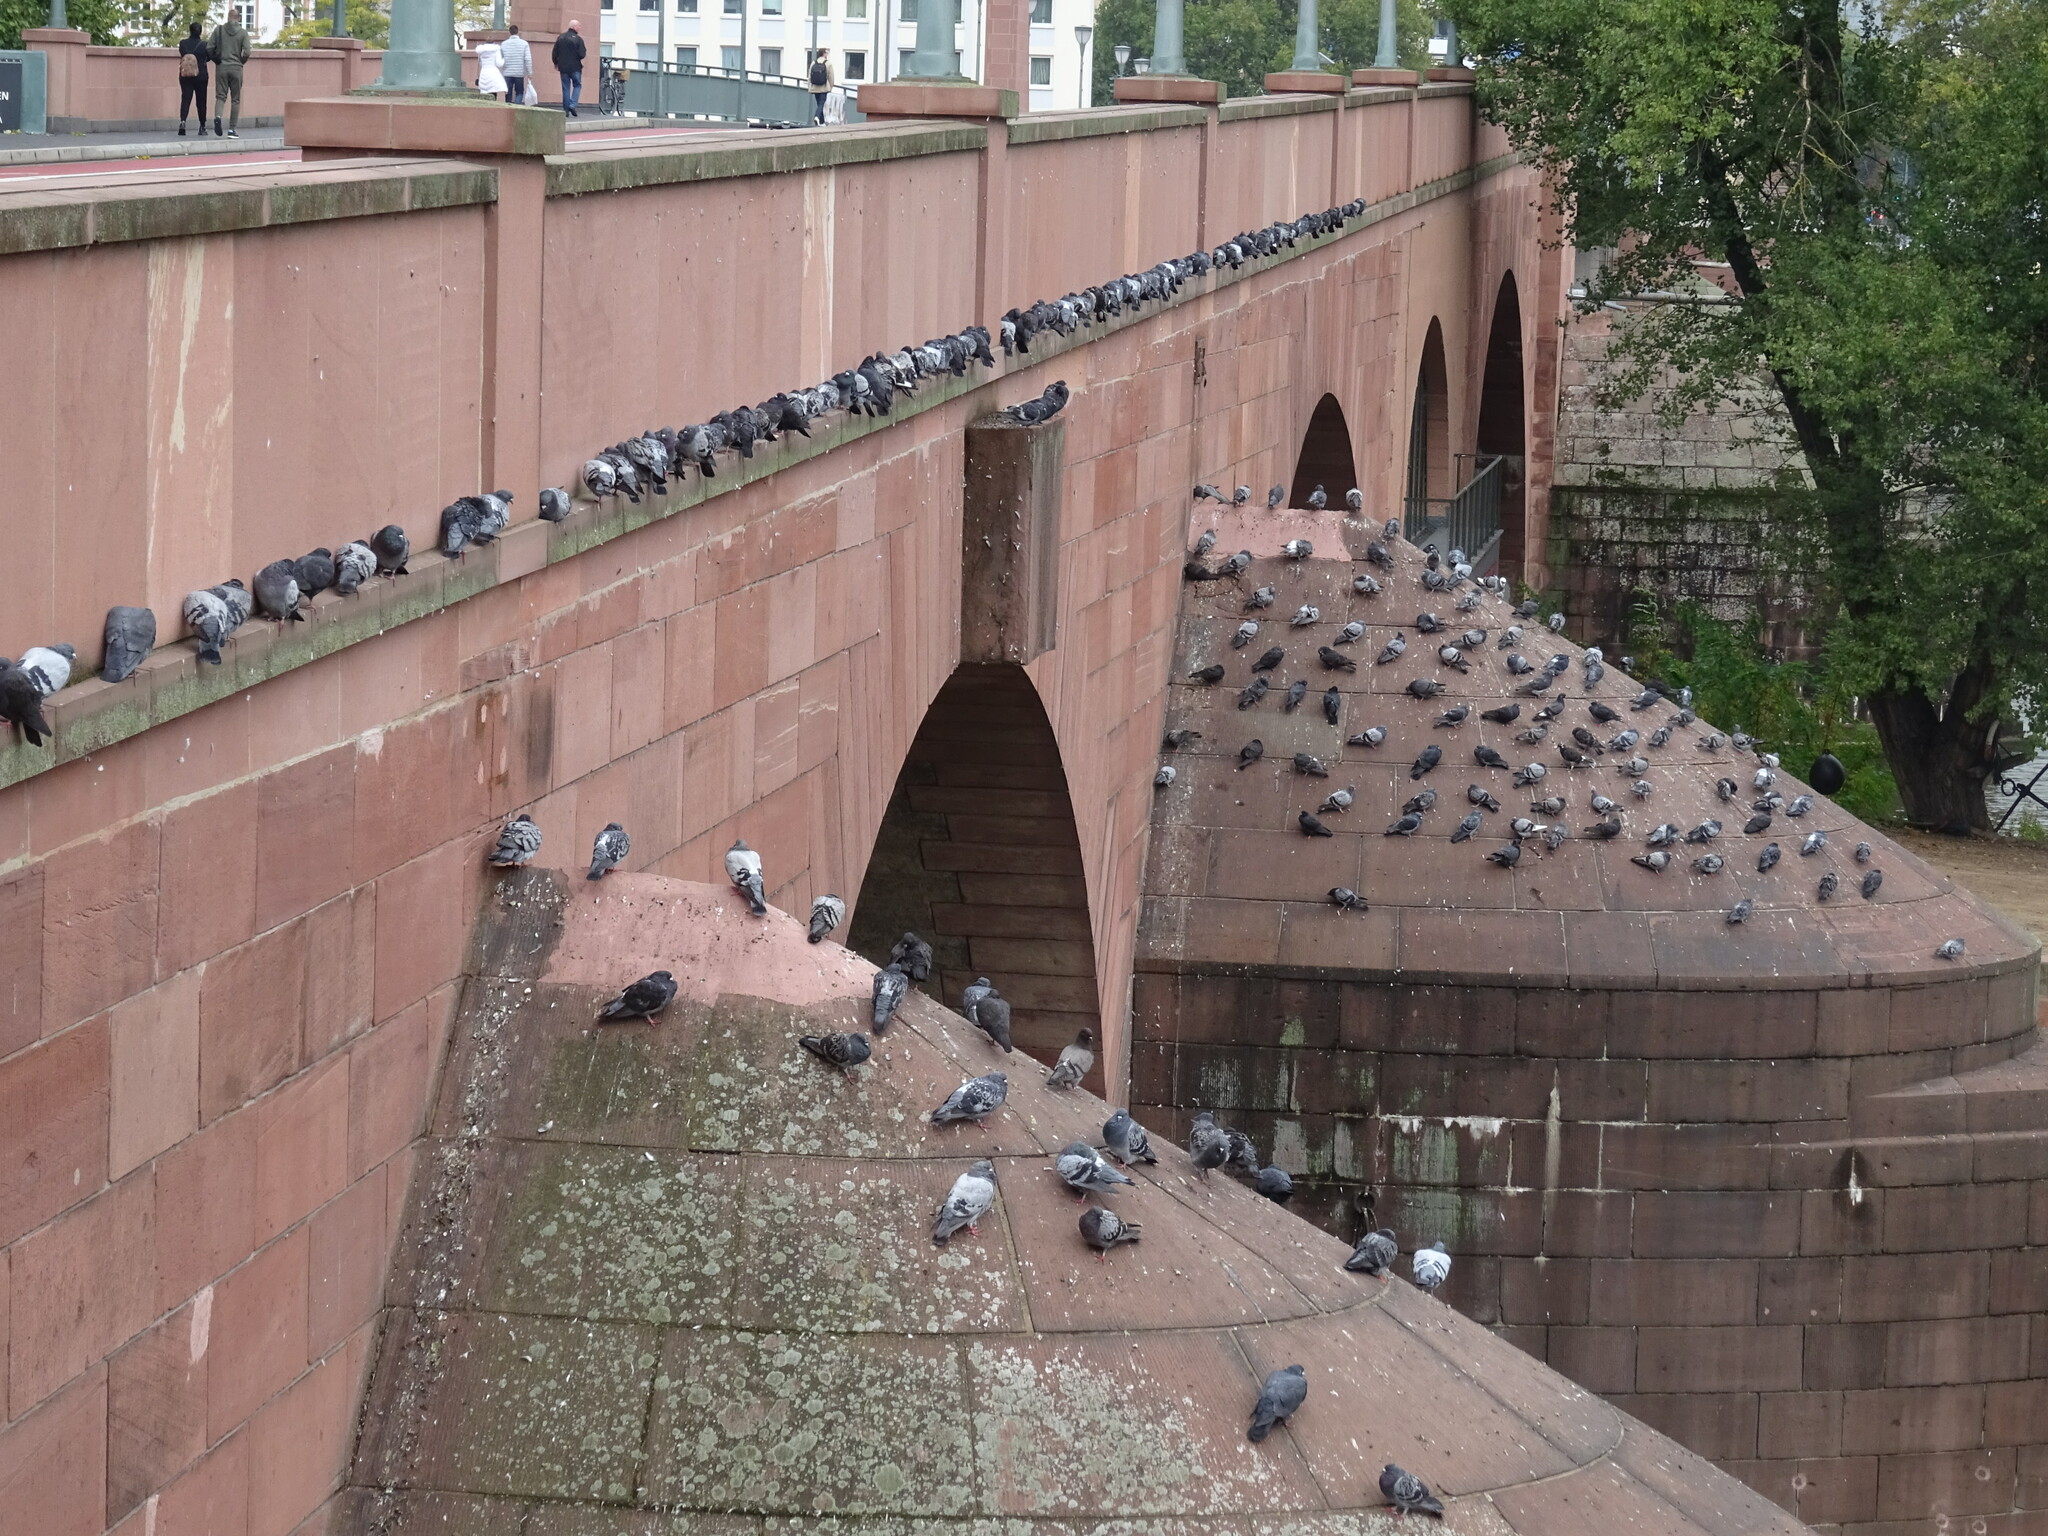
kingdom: Animalia
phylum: Chordata
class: Aves
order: Columbiformes
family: Columbidae
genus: Columba
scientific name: Columba livia
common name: Rock pigeon
